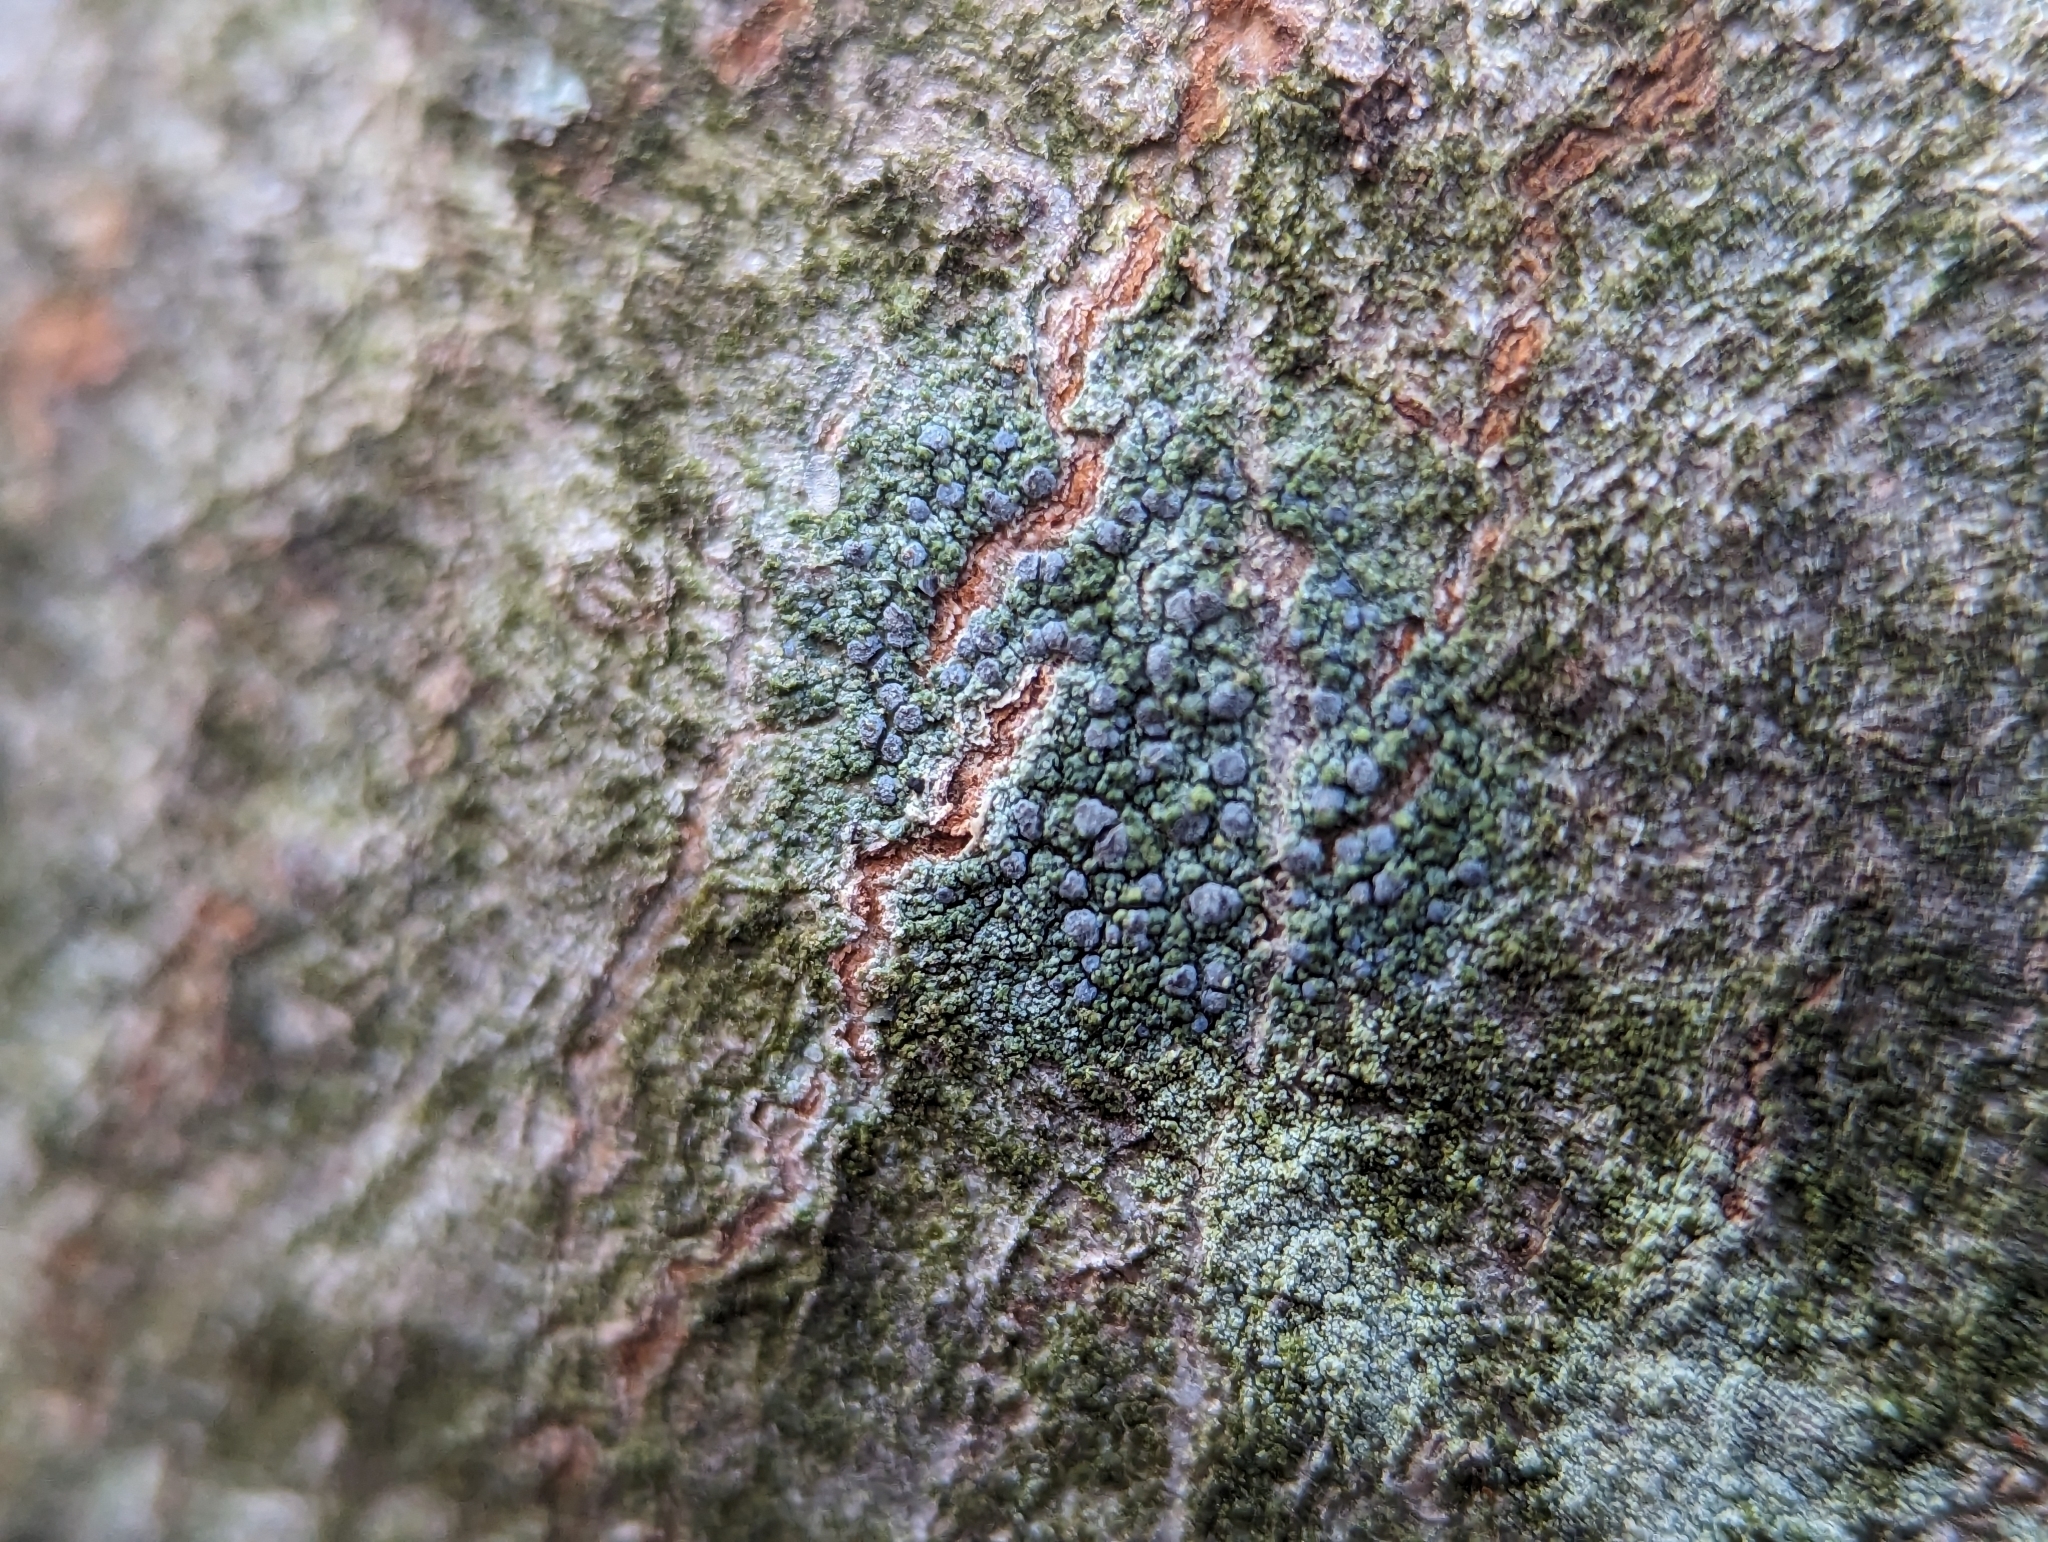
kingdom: Fungi
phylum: Ascomycota
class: Arthoniomycetes
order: Arthoniales
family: Chrysotrichaceae
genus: Chrysothrix
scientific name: Chrysothrix caesia
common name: Frosted comma lichen
